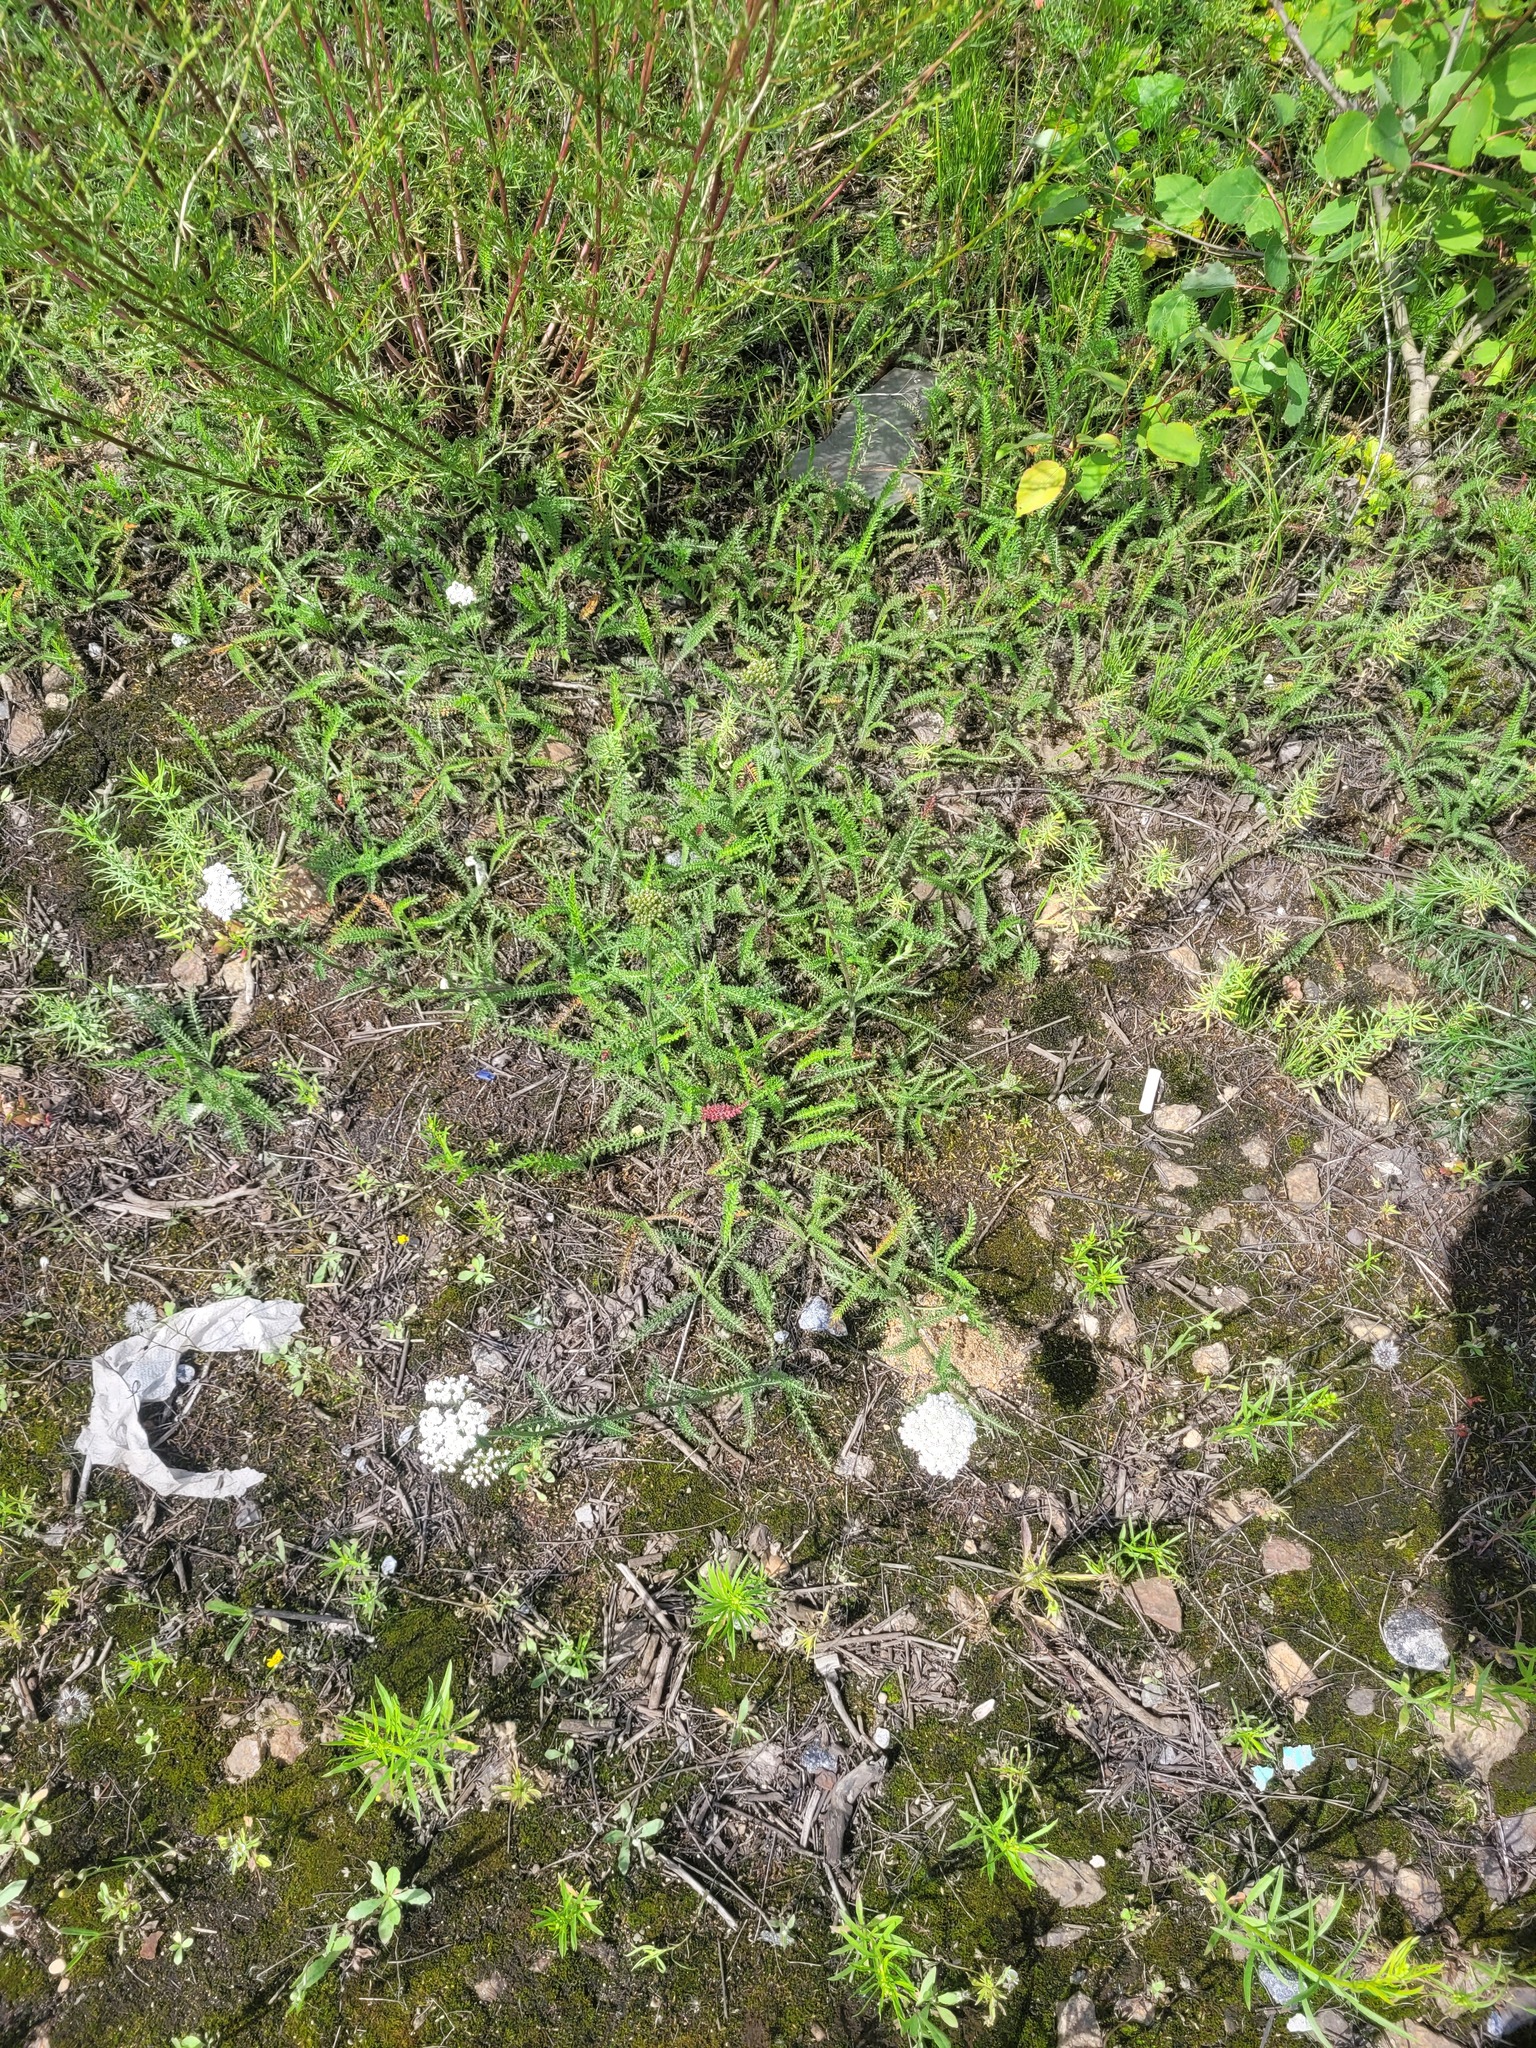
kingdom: Plantae
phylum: Tracheophyta
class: Magnoliopsida
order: Asterales
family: Asteraceae
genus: Achillea
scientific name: Achillea millefolium
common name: Yarrow
